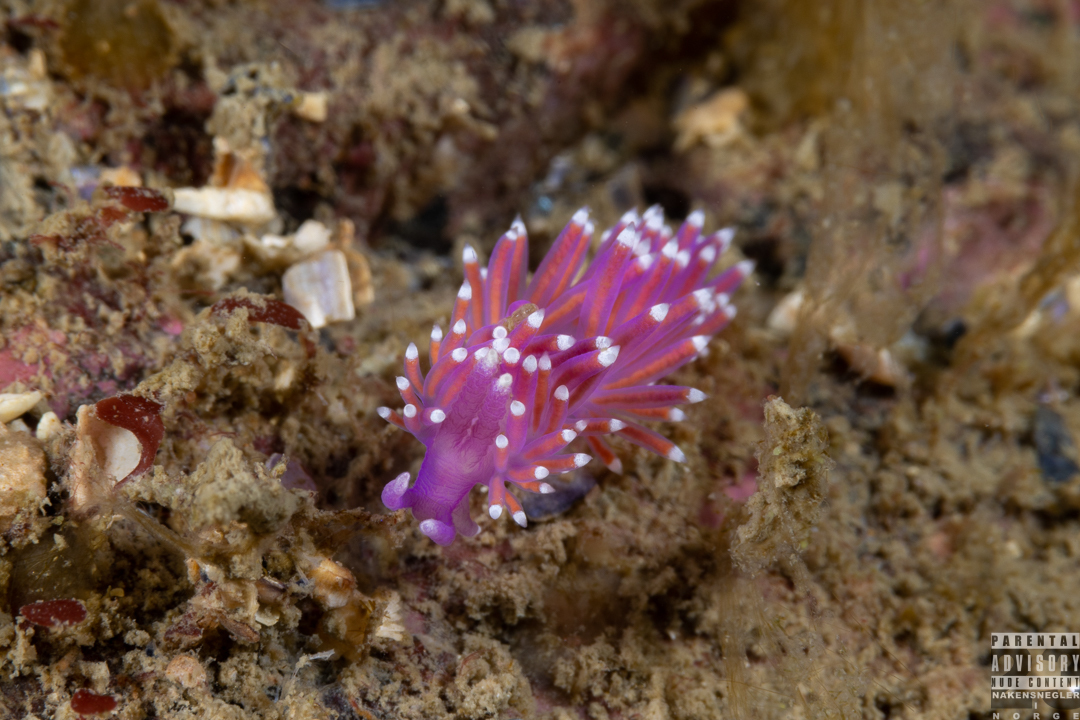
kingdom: Animalia
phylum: Mollusca
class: Gastropoda
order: Nudibranchia
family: Flabellinidae
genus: Edmundsella
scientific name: Edmundsella pedata
